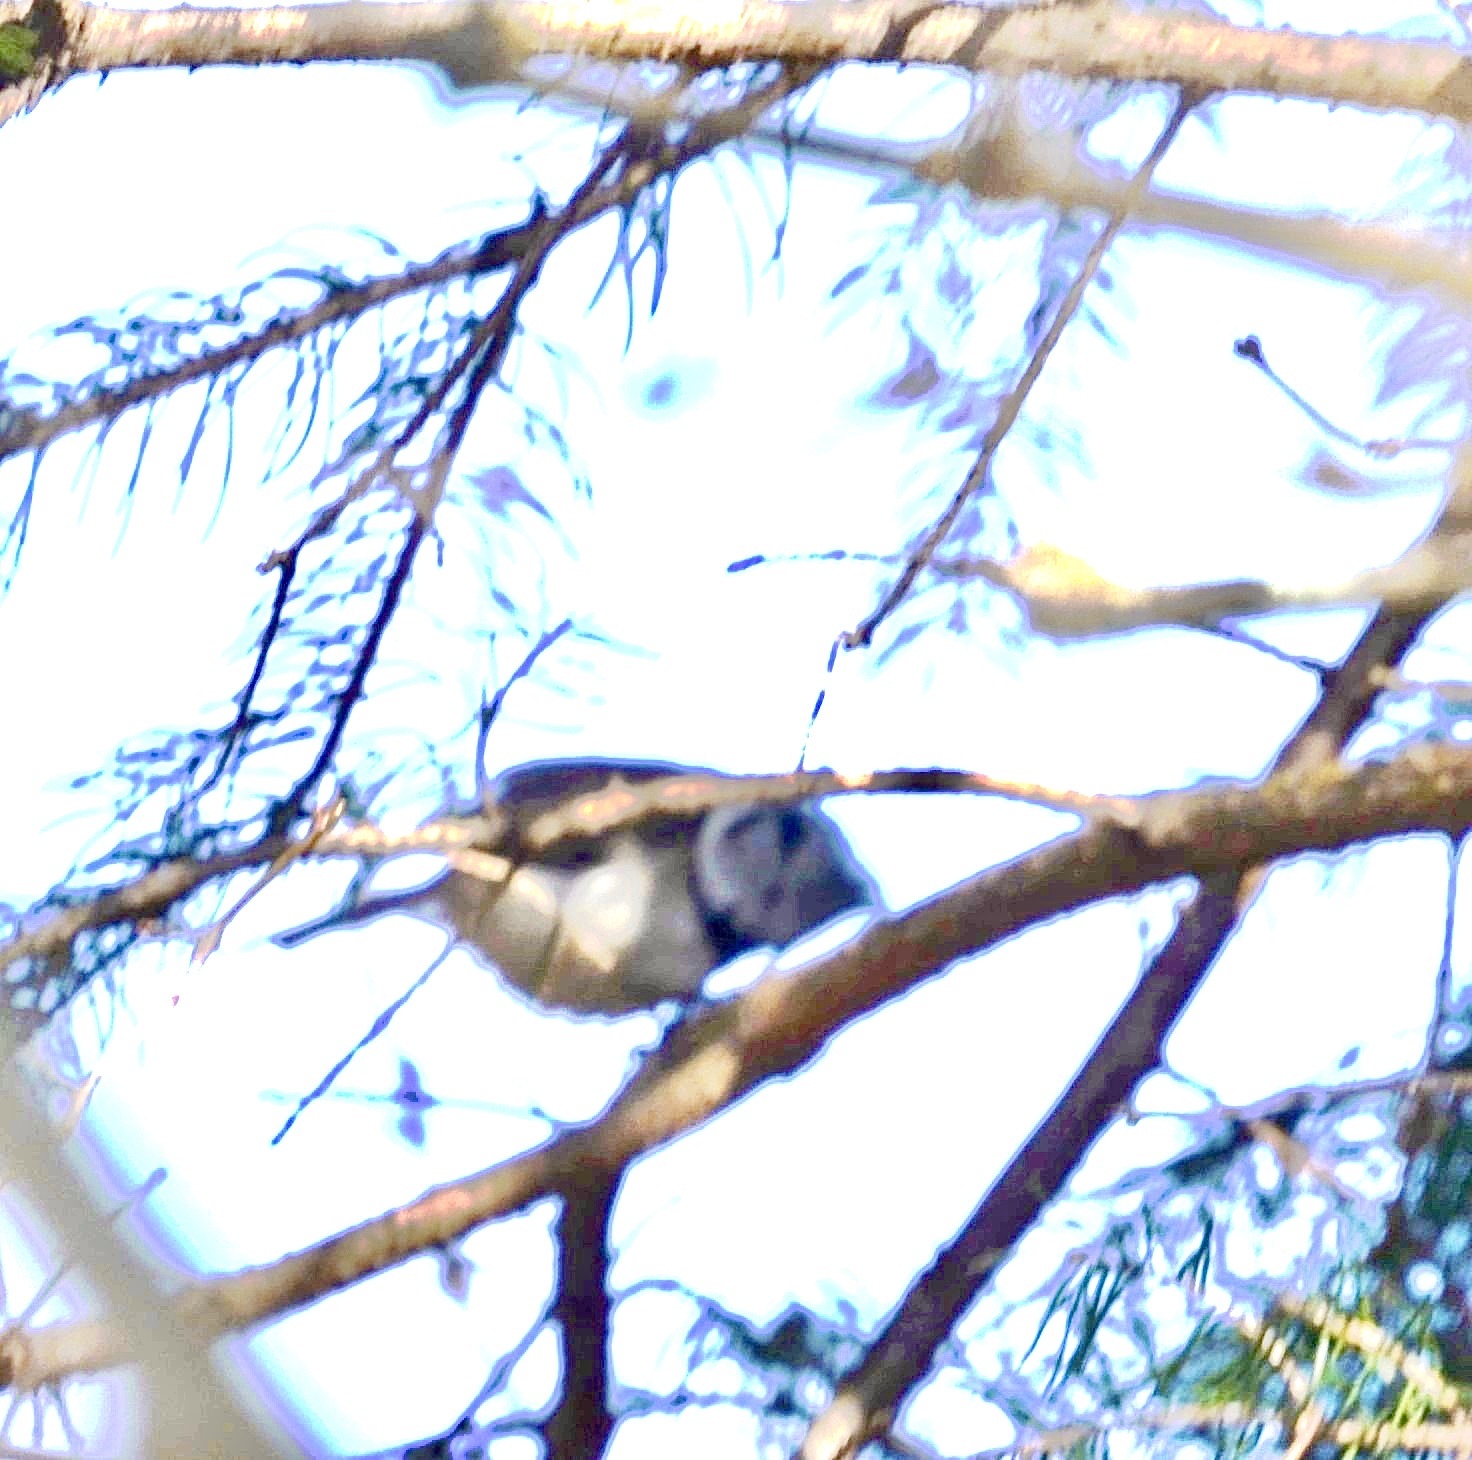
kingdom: Animalia
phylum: Chordata
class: Aves
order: Passeriformes
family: Paridae
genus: Lophophanes
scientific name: Lophophanes cristatus
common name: European crested tit
